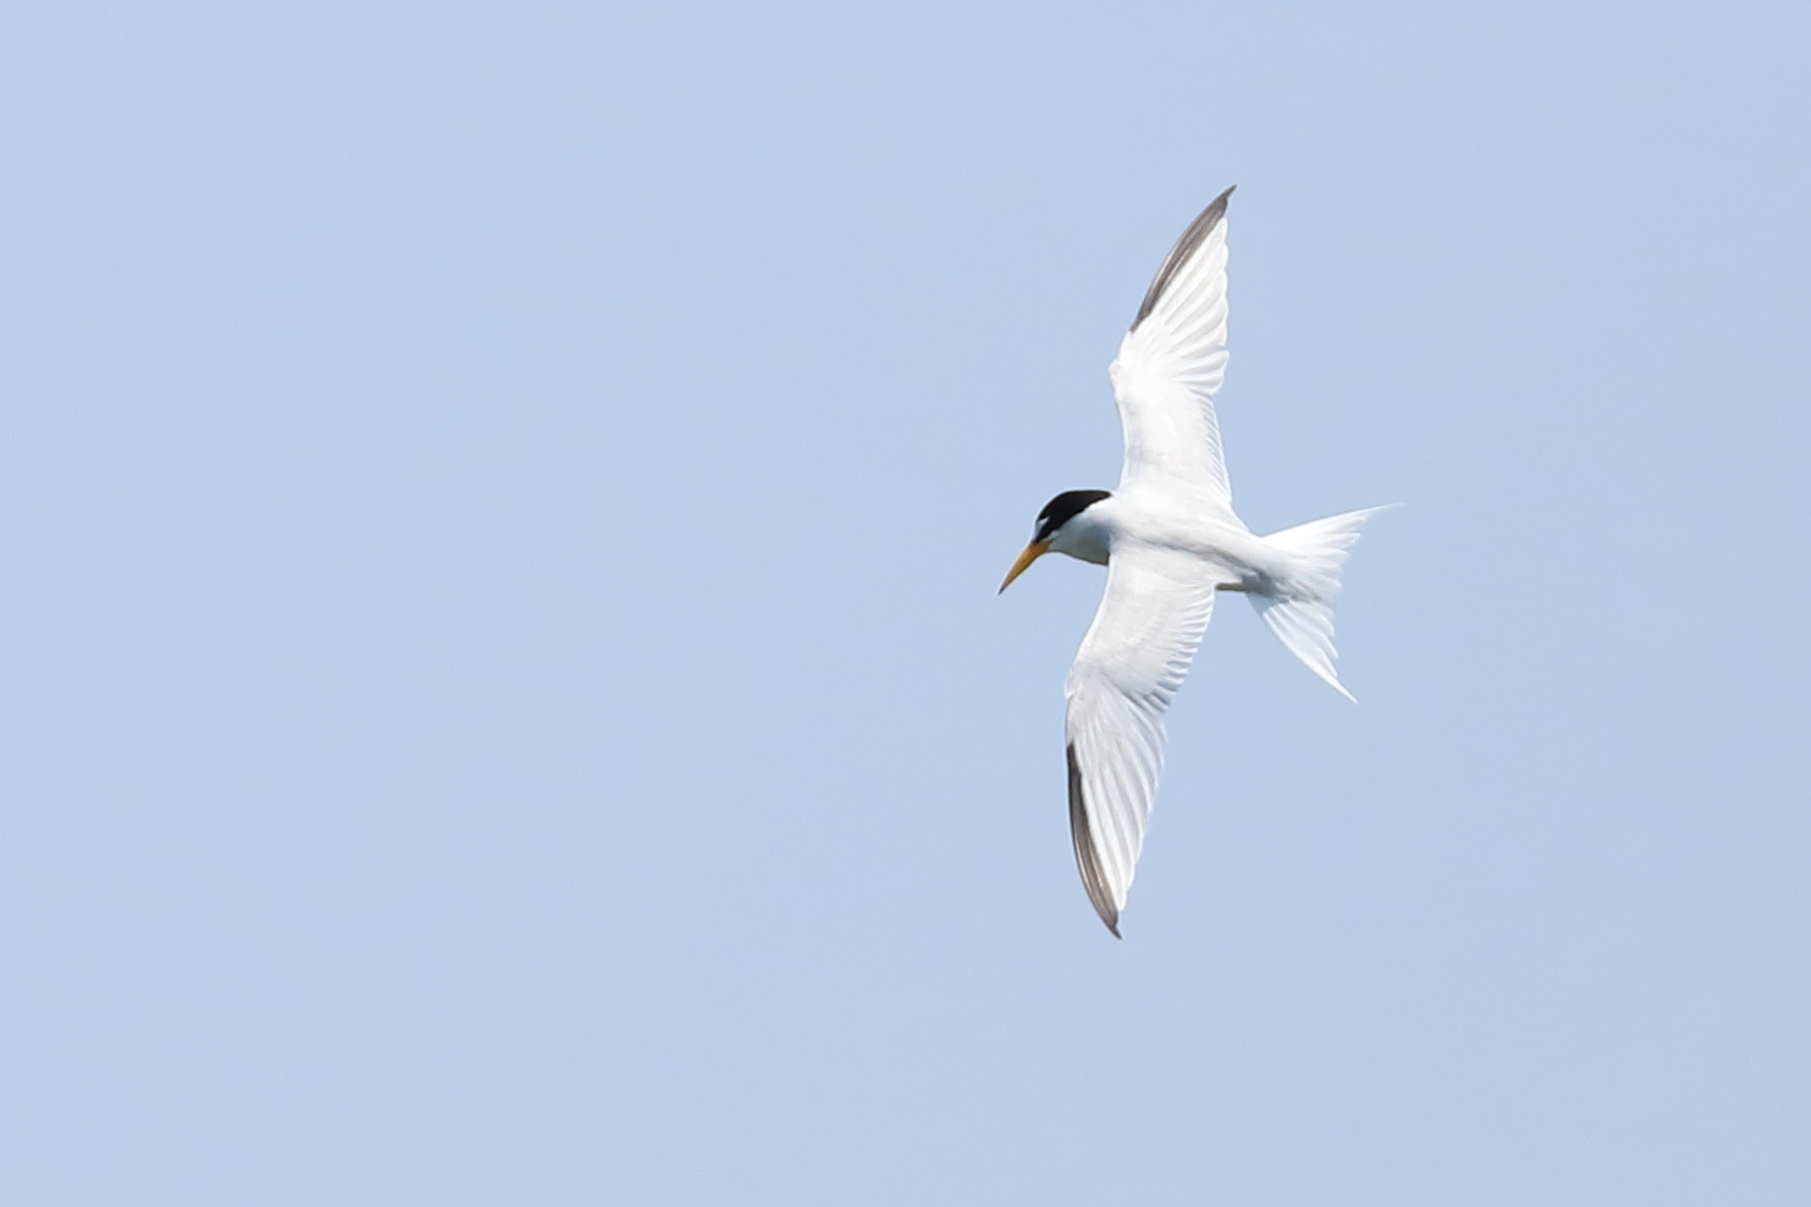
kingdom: Animalia
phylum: Chordata
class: Aves
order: Charadriiformes
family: Laridae
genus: Sternula
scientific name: Sternula antillarum
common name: Least tern
